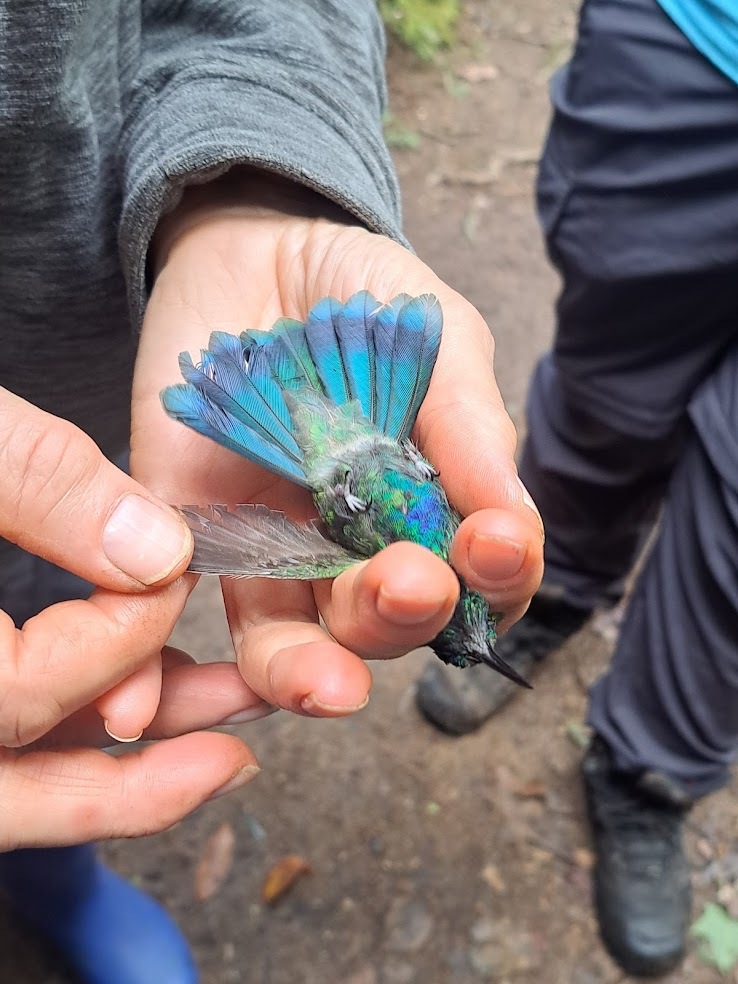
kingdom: Animalia
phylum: Chordata
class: Aves
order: Apodiformes
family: Trochilidae
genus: Colibri
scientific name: Colibri thalassinus
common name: Green violetear
